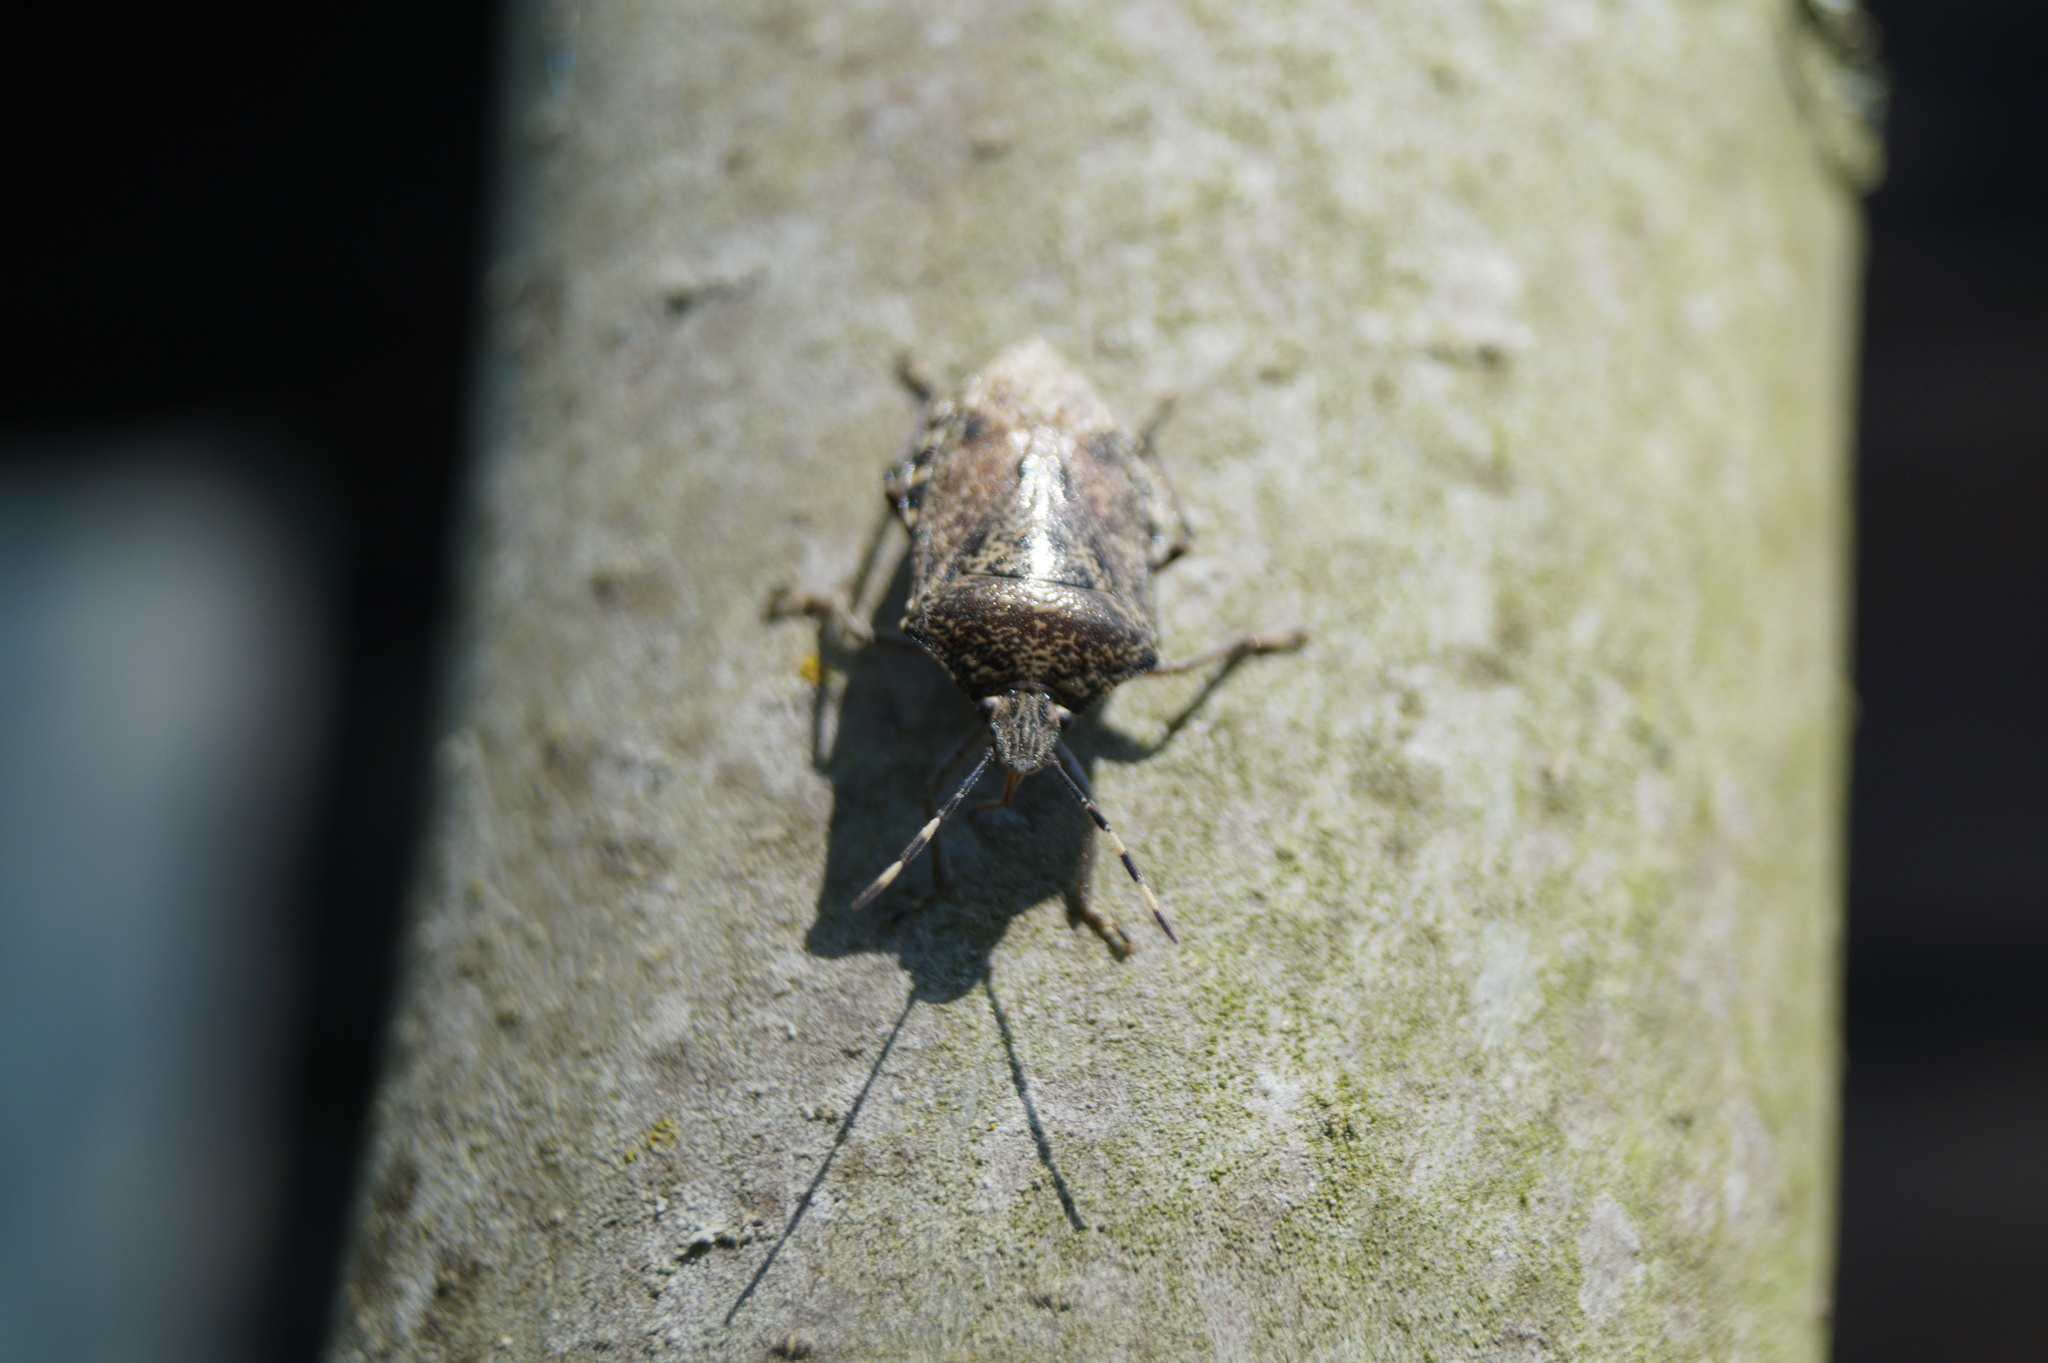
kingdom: Animalia
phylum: Arthropoda
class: Insecta
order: Hemiptera
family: Pentatomidae
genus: Rhaphigaster
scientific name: Rhaphigaster nebulosa
